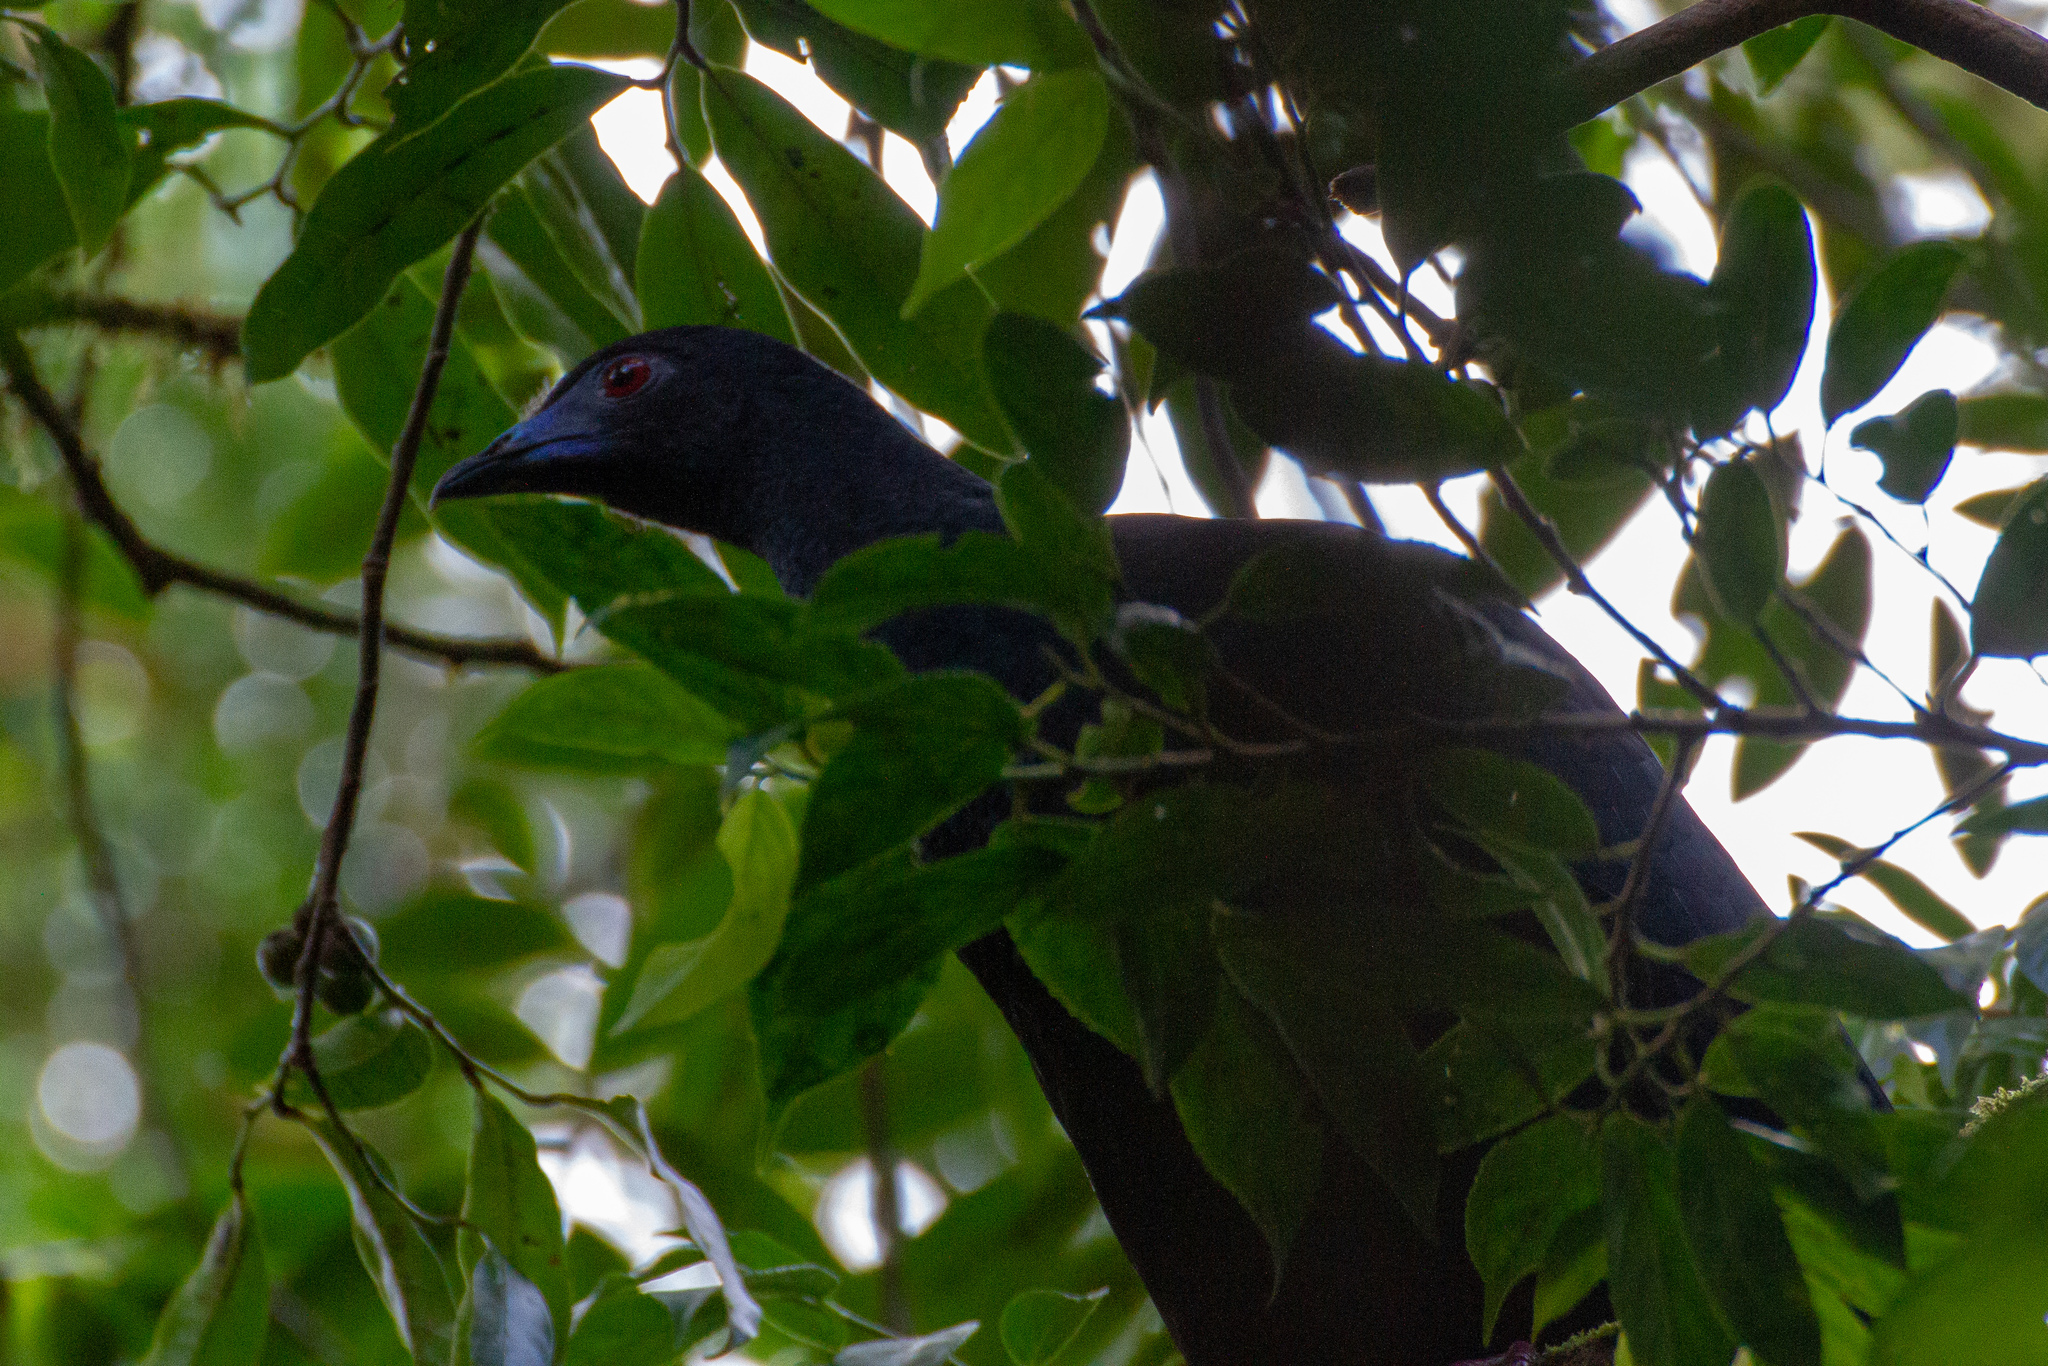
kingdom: Animalia
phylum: Chordata
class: Aves
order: Galliformes
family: Cracidae
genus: Chamaepetes
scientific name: Chamaepetes unicolor
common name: Black guan
